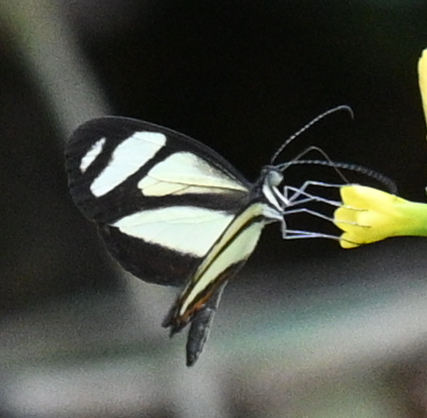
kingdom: Animalia
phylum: Arthropoda
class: Insecta
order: Lepidoptera
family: Pieridae
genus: Moschoneura
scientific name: Moschoneura pinthous
